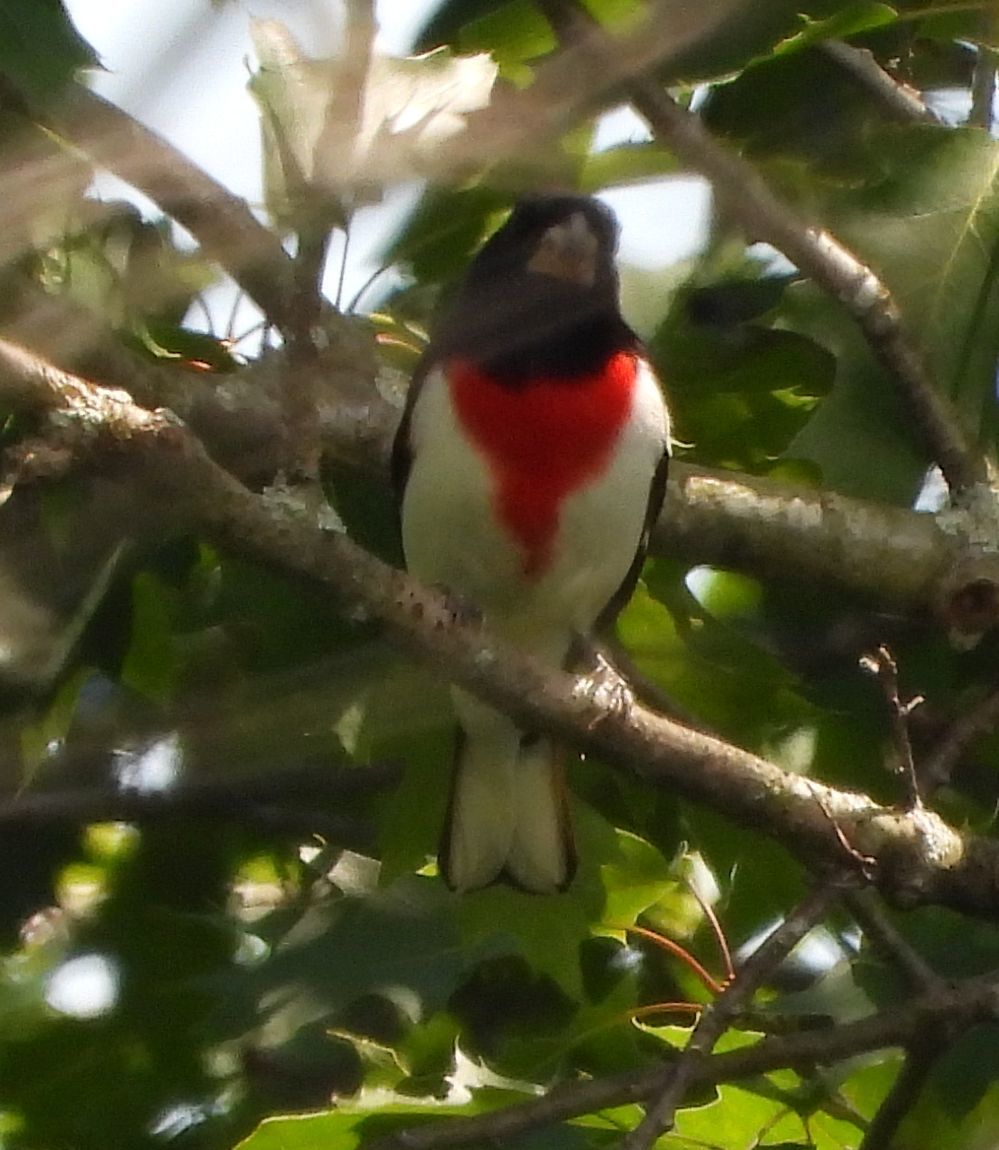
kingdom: Animalia
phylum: Chordata
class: Aves
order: Passeriformes
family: Cardinalidae
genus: Pheucticus
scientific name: Pheucticus ludovicianus
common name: Rose-breasted grosbeak
